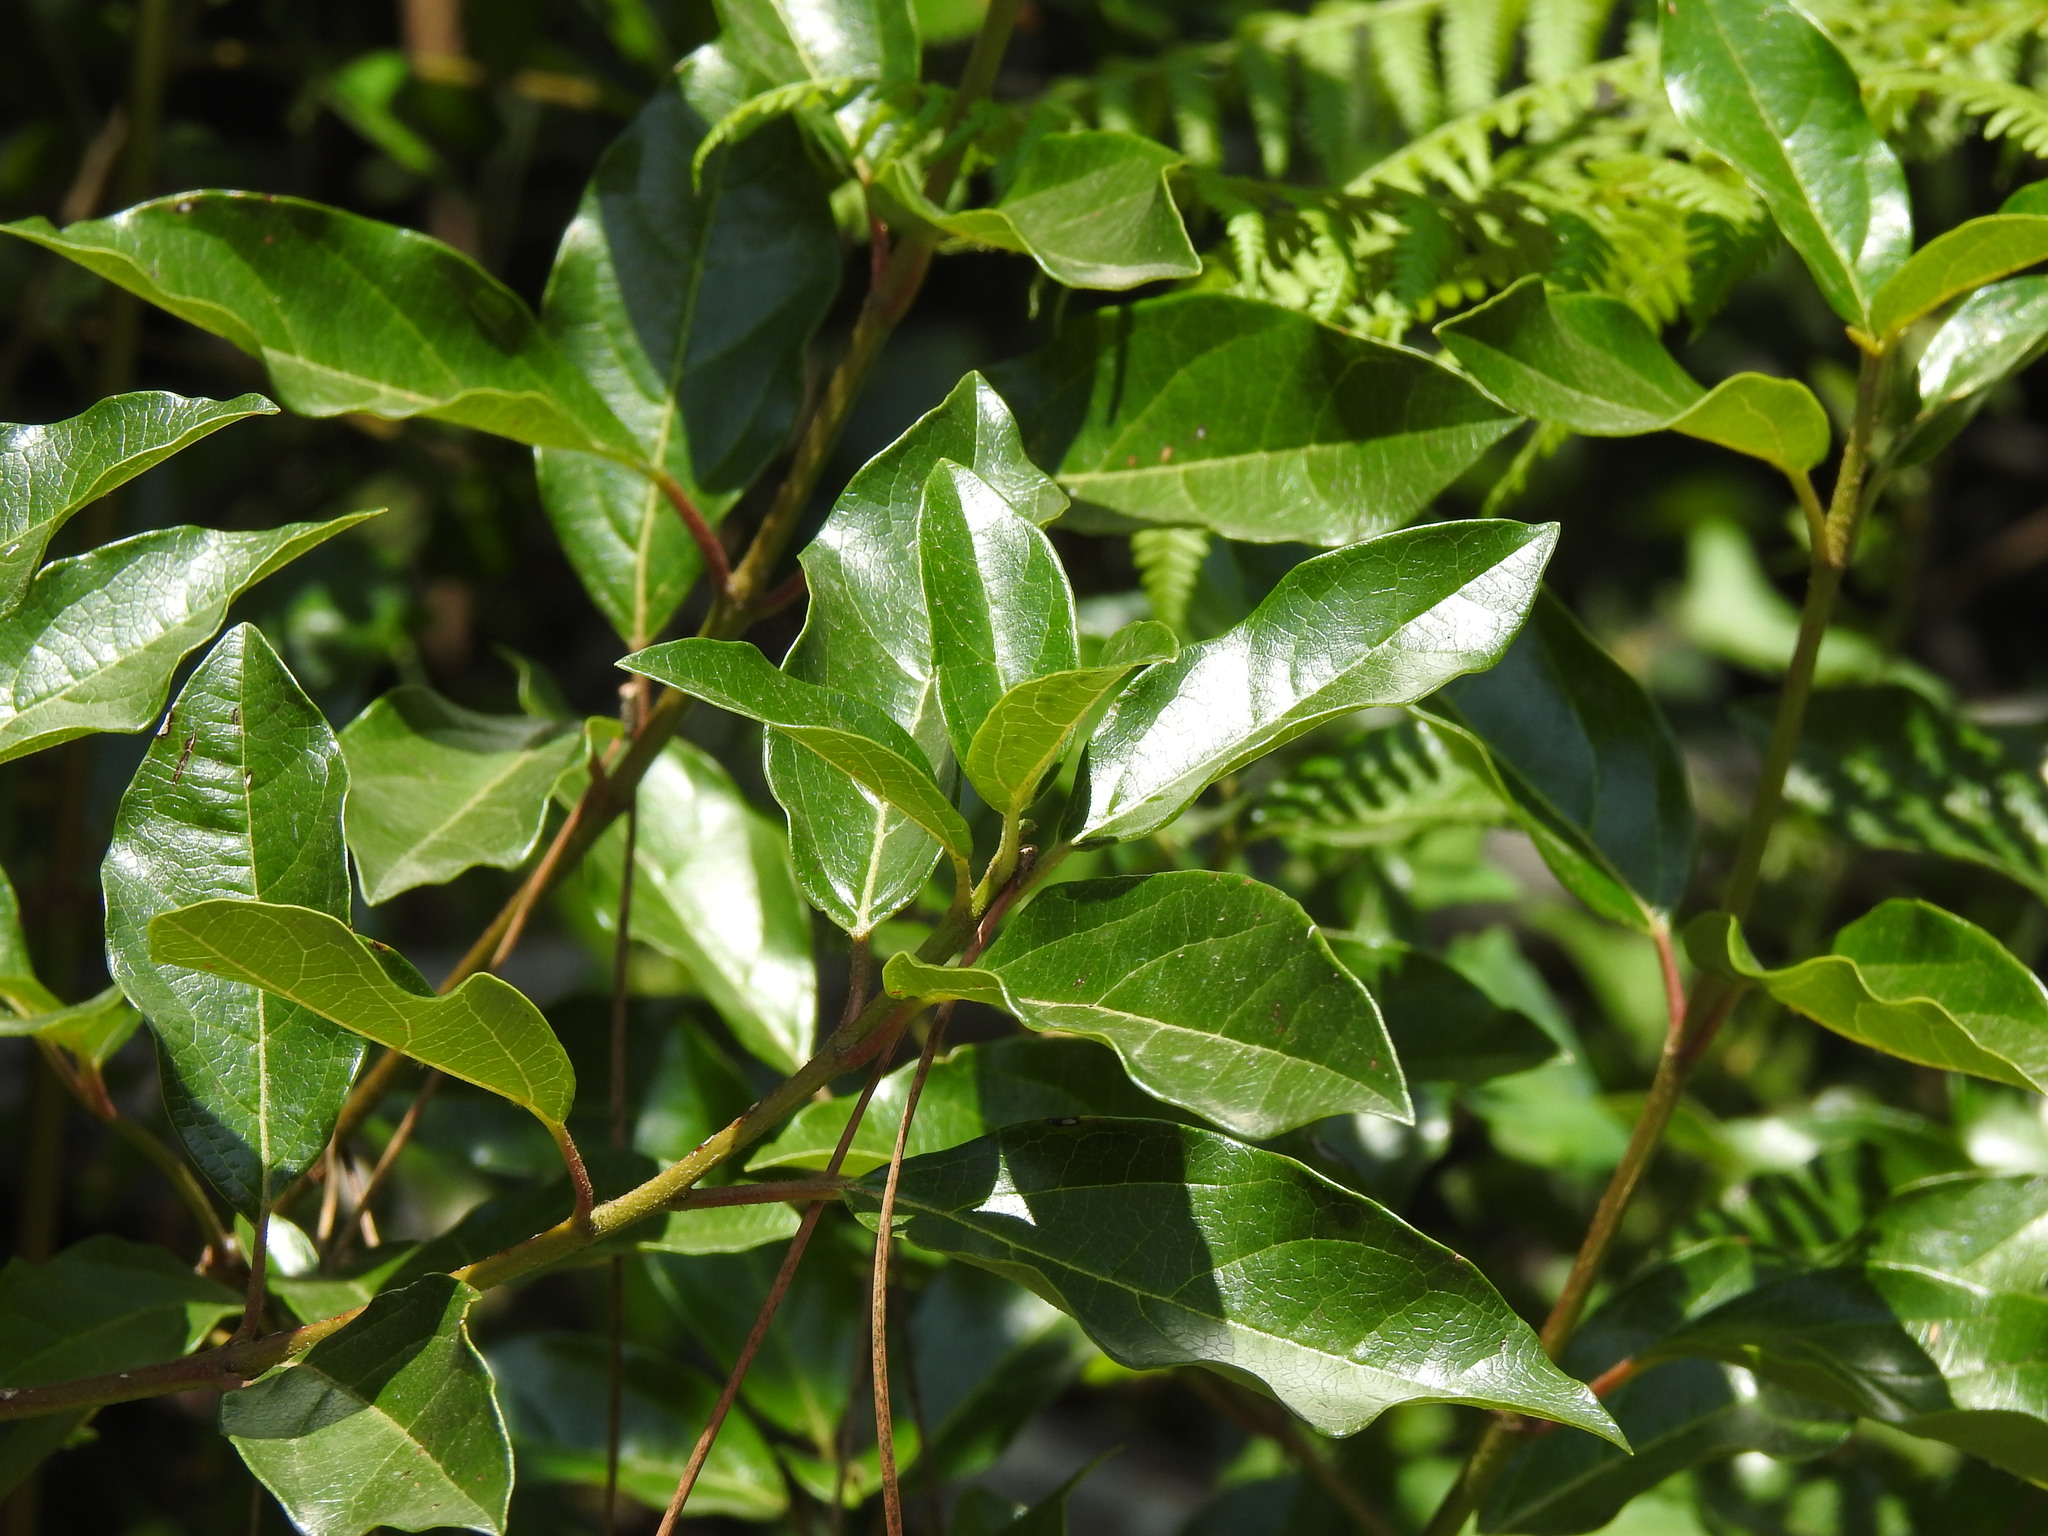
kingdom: Plantae
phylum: Tracheophyta
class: Magnoliopsida
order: Dipsacales
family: Viburnaceae
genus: Viburnum
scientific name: Viburnum tinus
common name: Laurustinus
